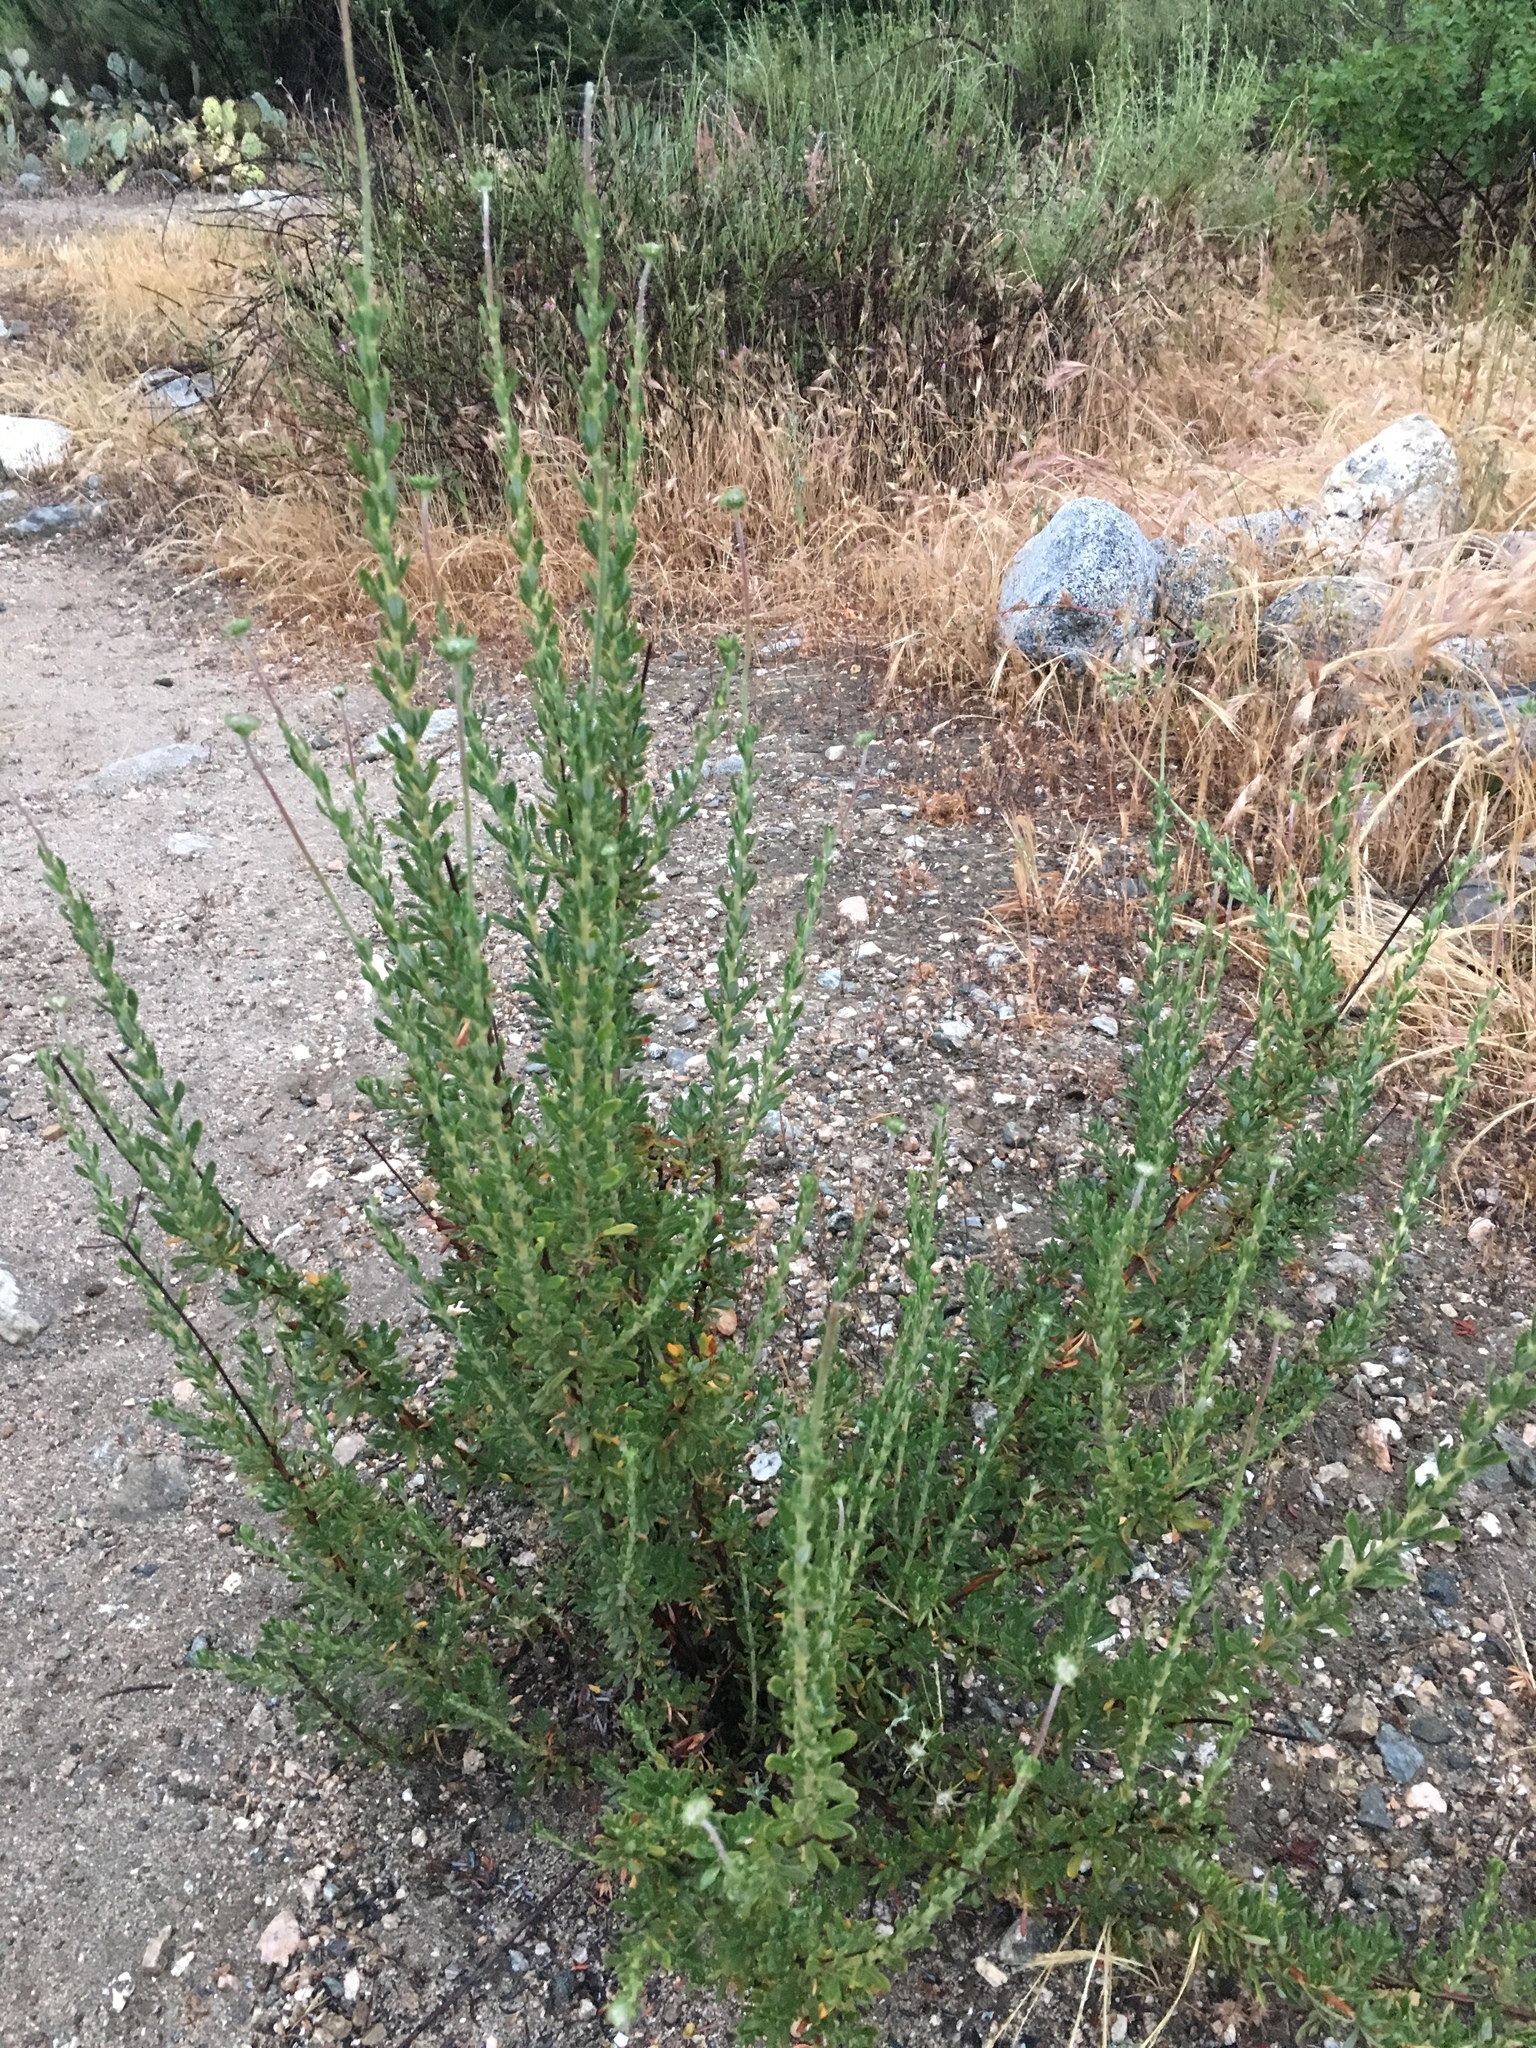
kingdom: Plantae
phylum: Tracheophyta
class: Magnoliopsida
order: Caryophyllales
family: Polygonaceae
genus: Eriogonum
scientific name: Eriogonum fasciculatum
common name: California wild buckwheat
